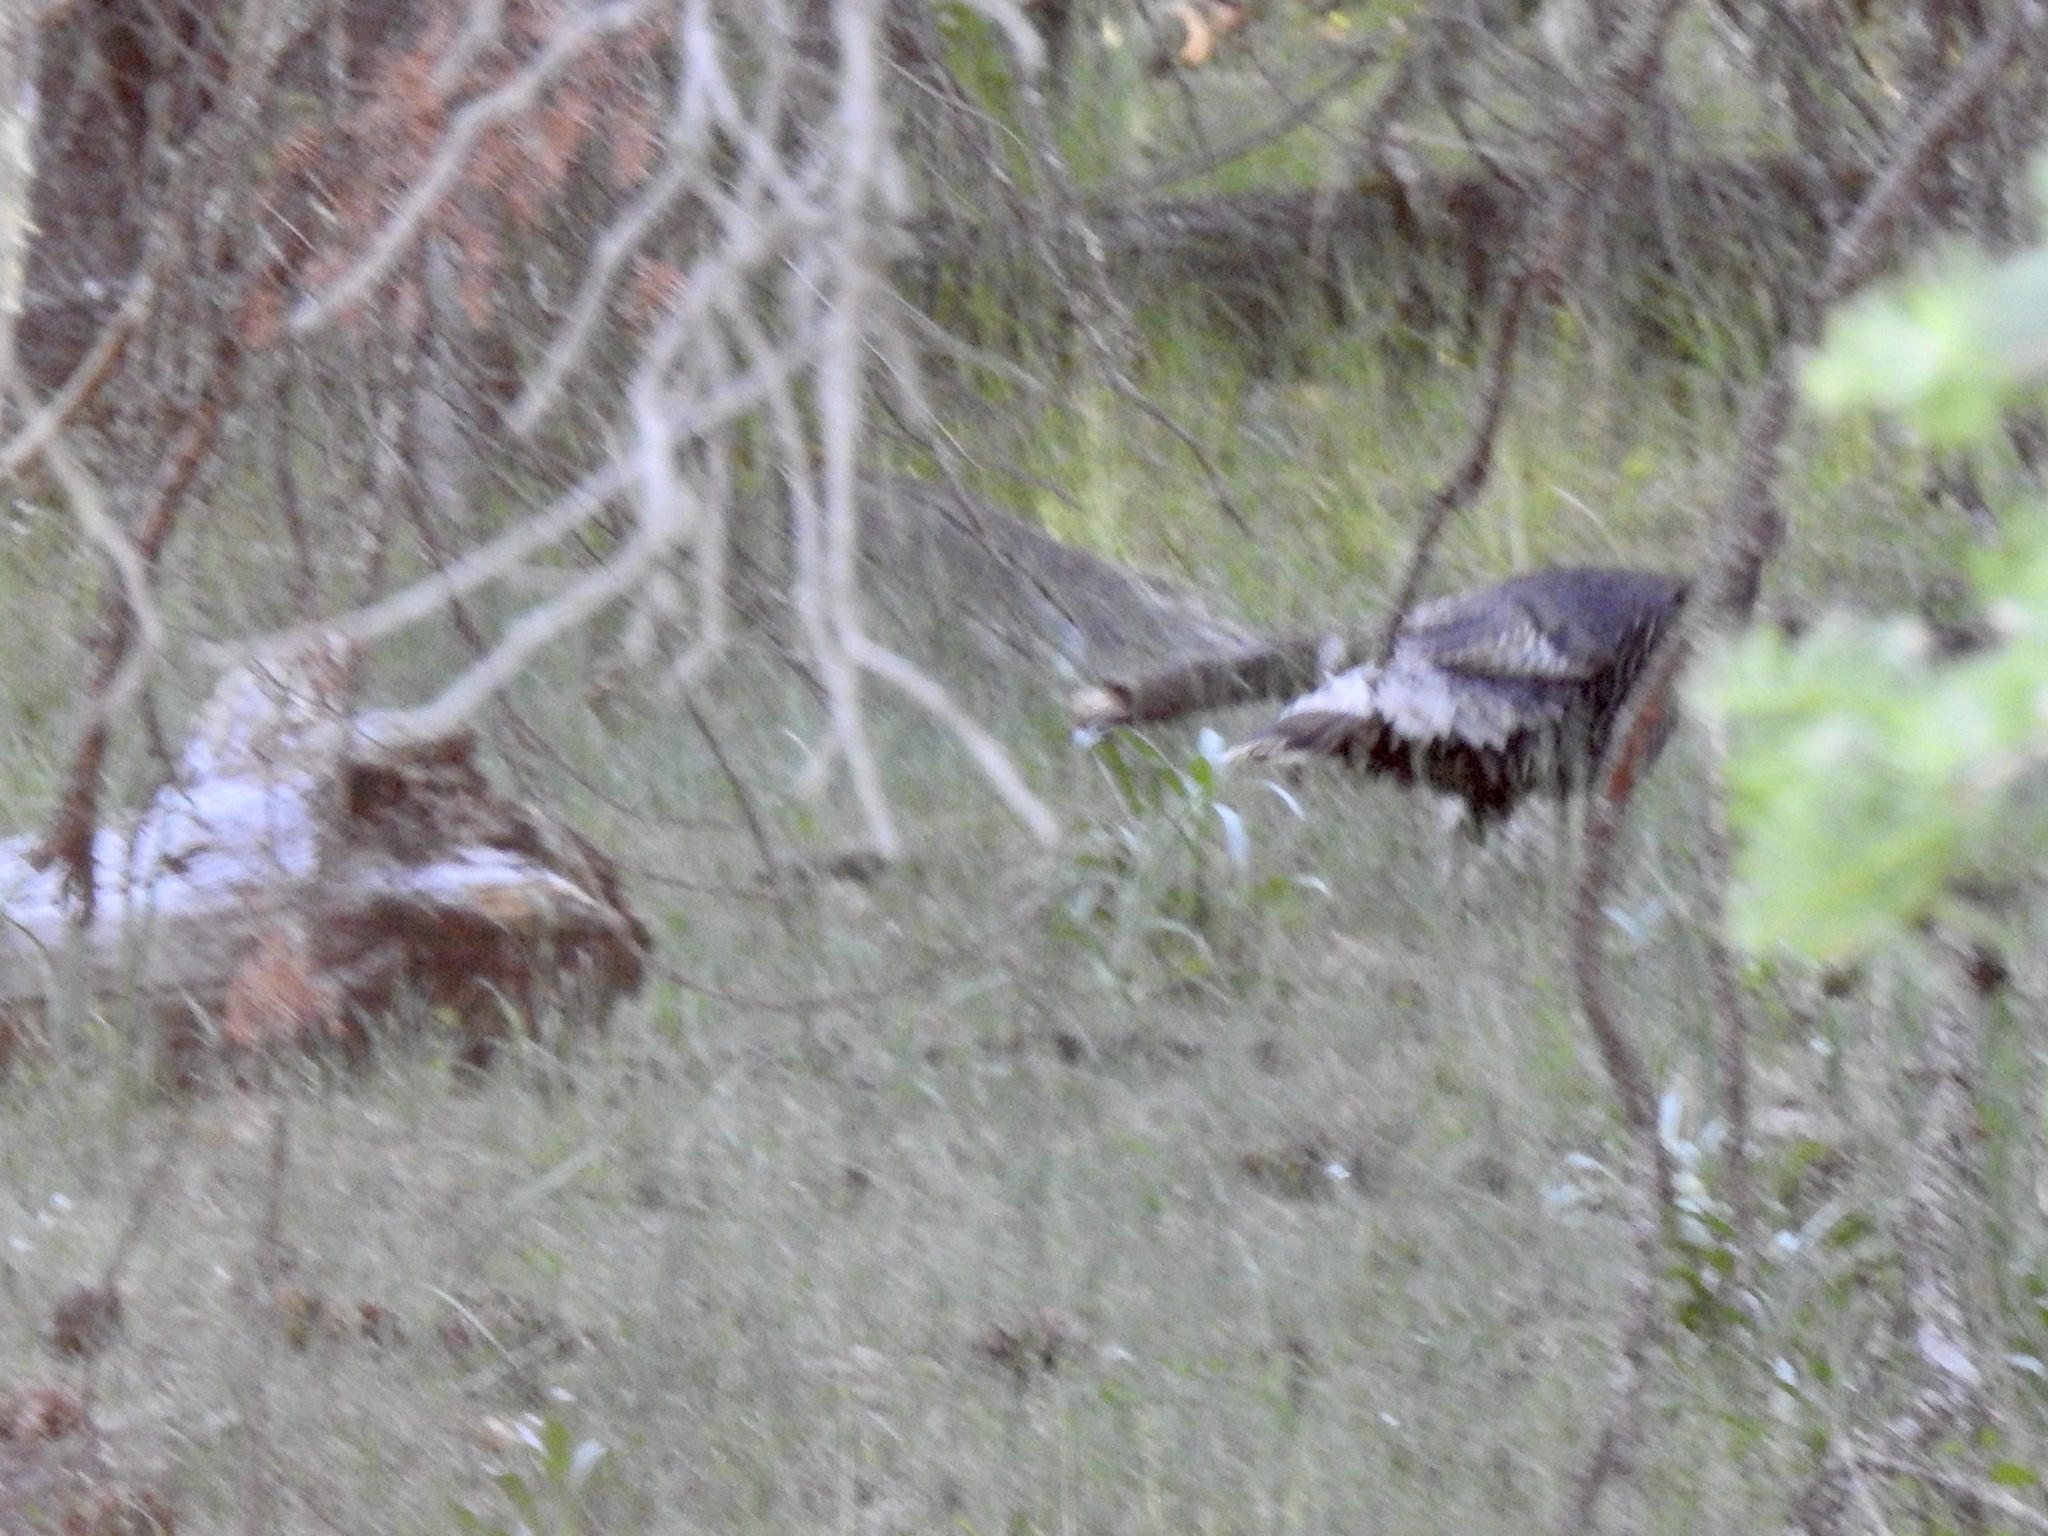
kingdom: Animalia
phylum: Chordata
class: Aves
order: Galliformes
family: Phasianidae
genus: Meleagris
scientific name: Meleagris gallopavo
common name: Wild turkey
